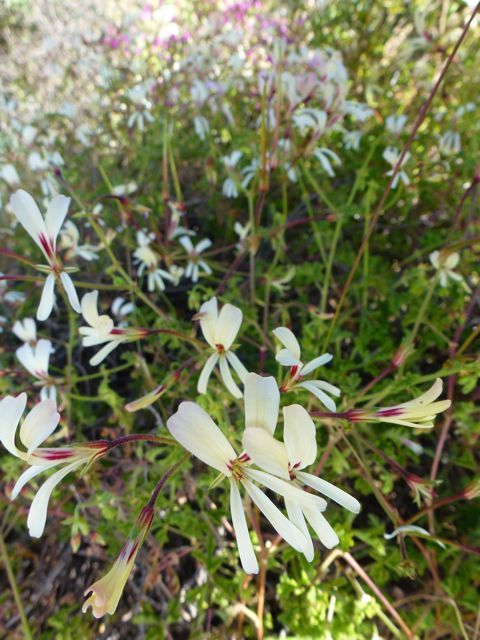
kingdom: Plantae
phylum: Tracheophyta
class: Magnoliopsida
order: Geraniales
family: Geraniaceae
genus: Pelargonium
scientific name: Pelargonium trifidum
